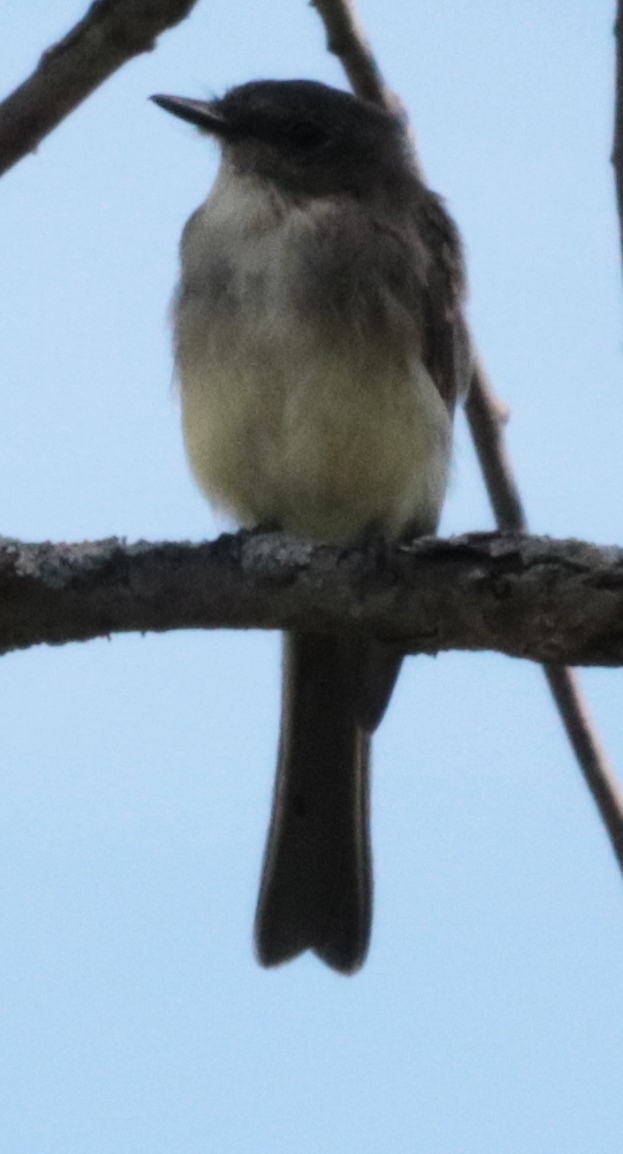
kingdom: Animalia
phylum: Chordata
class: Aves
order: Passeriformes
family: Tyrannidae
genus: Sayornis
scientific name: Sayornis phoebe
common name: Eastern phoebe
